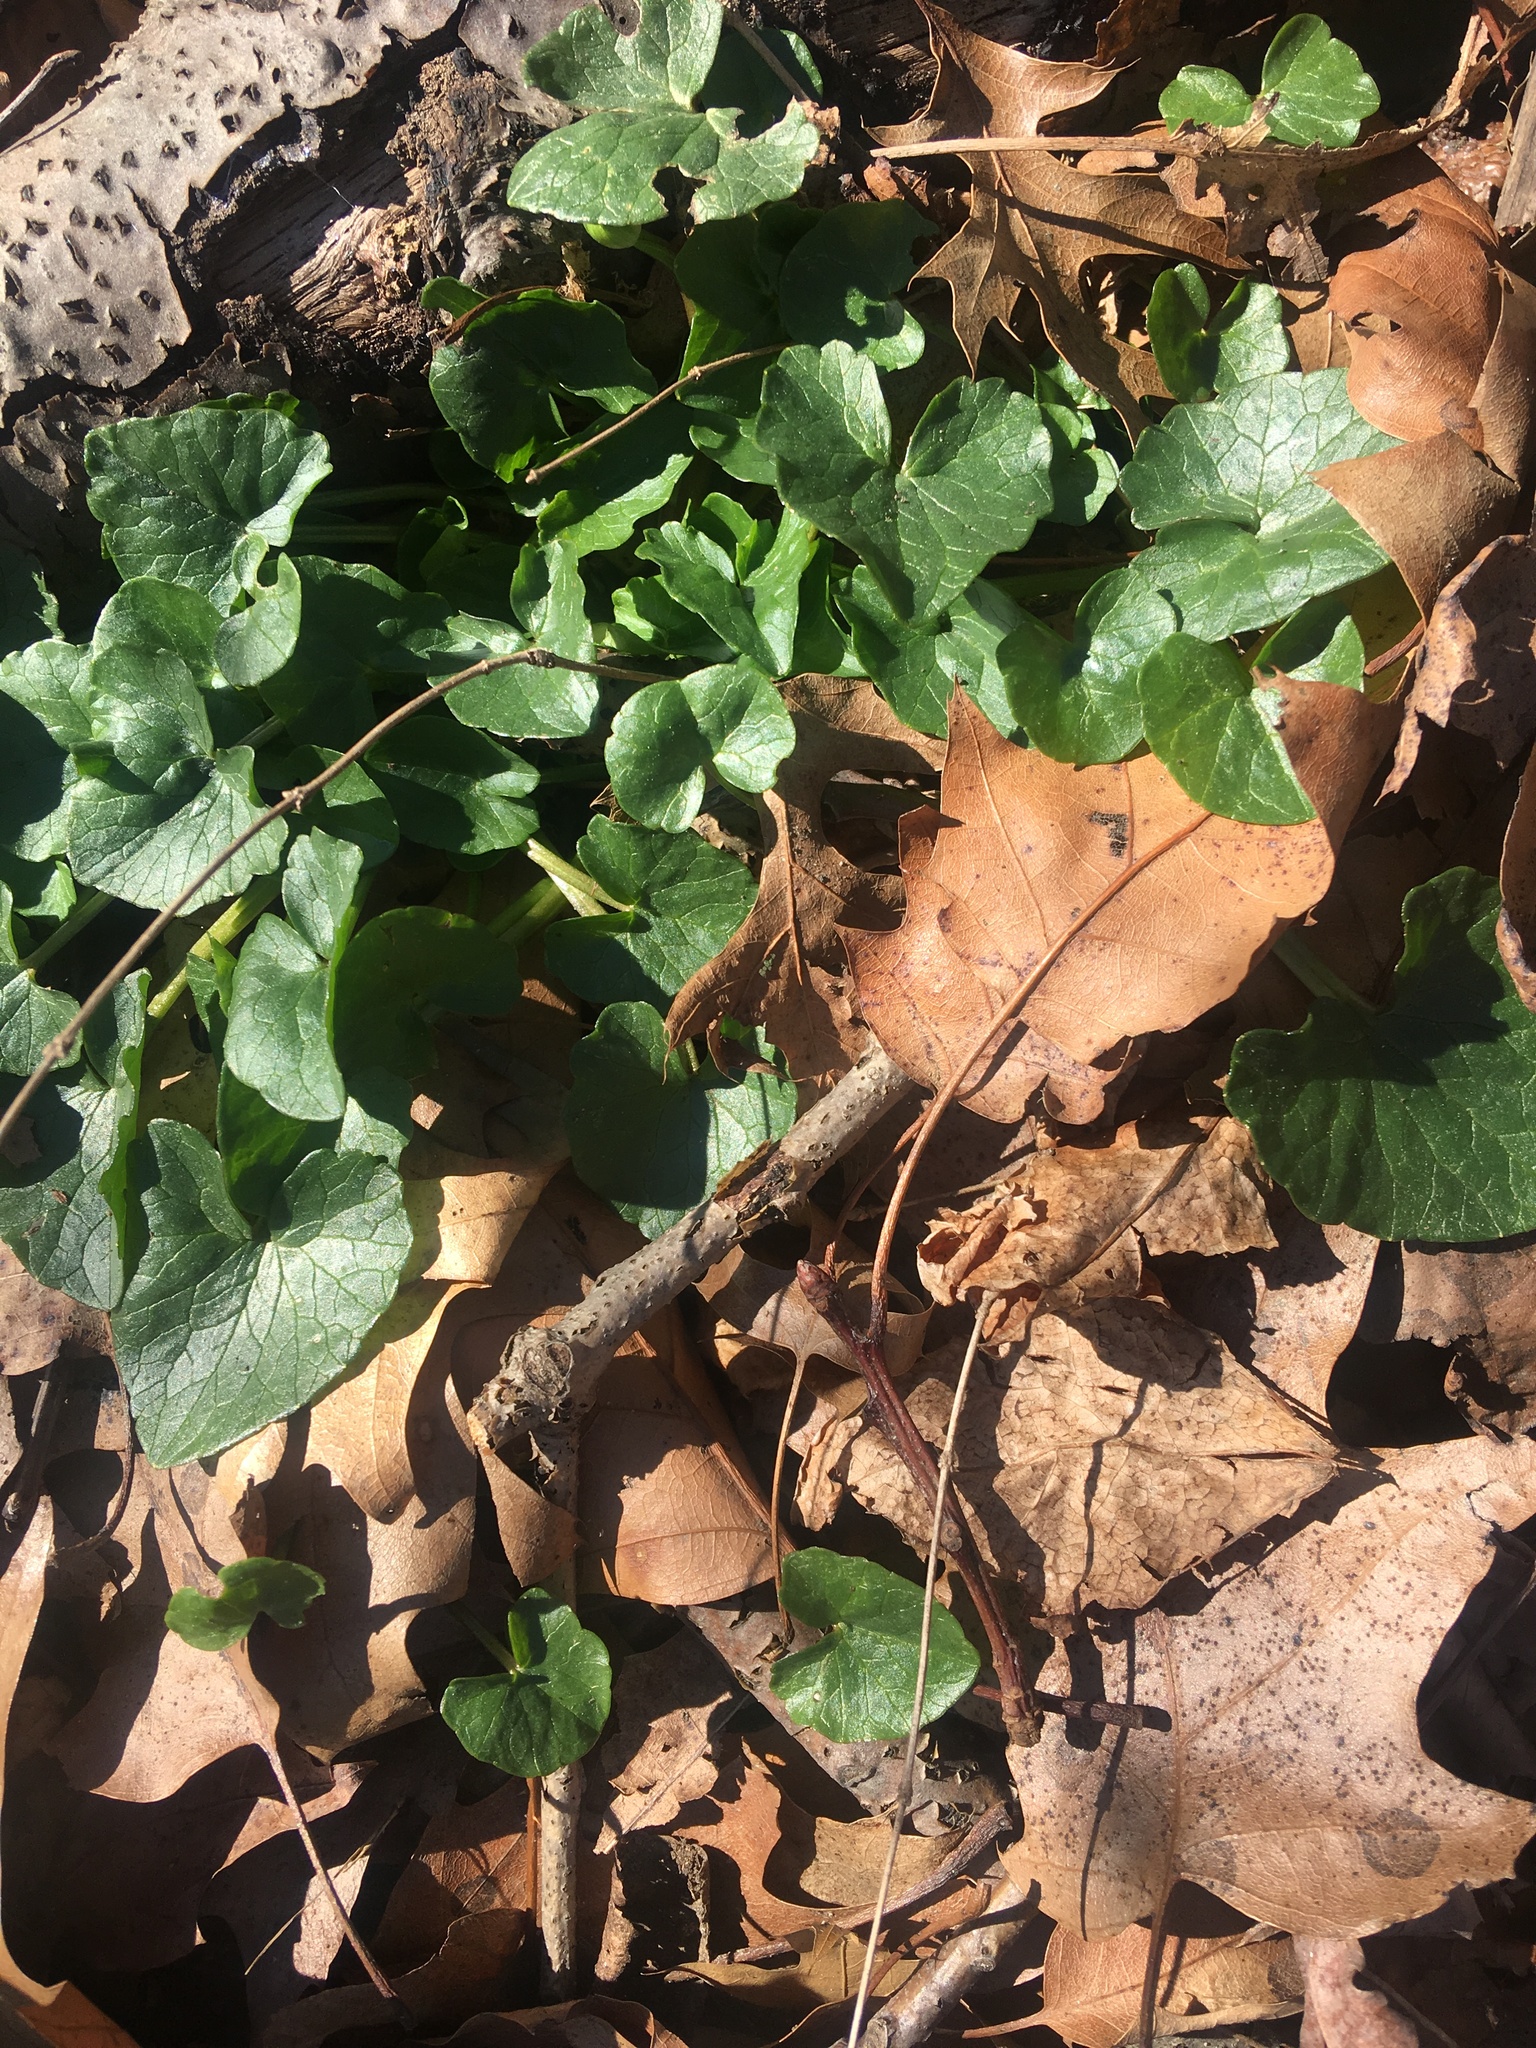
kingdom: Plantae
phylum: Tracheophyta
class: Magnoliopsida
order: Ranunculales
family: Ranunculaceae
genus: Ficaria
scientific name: Ficaria verna
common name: Lesser celandine
